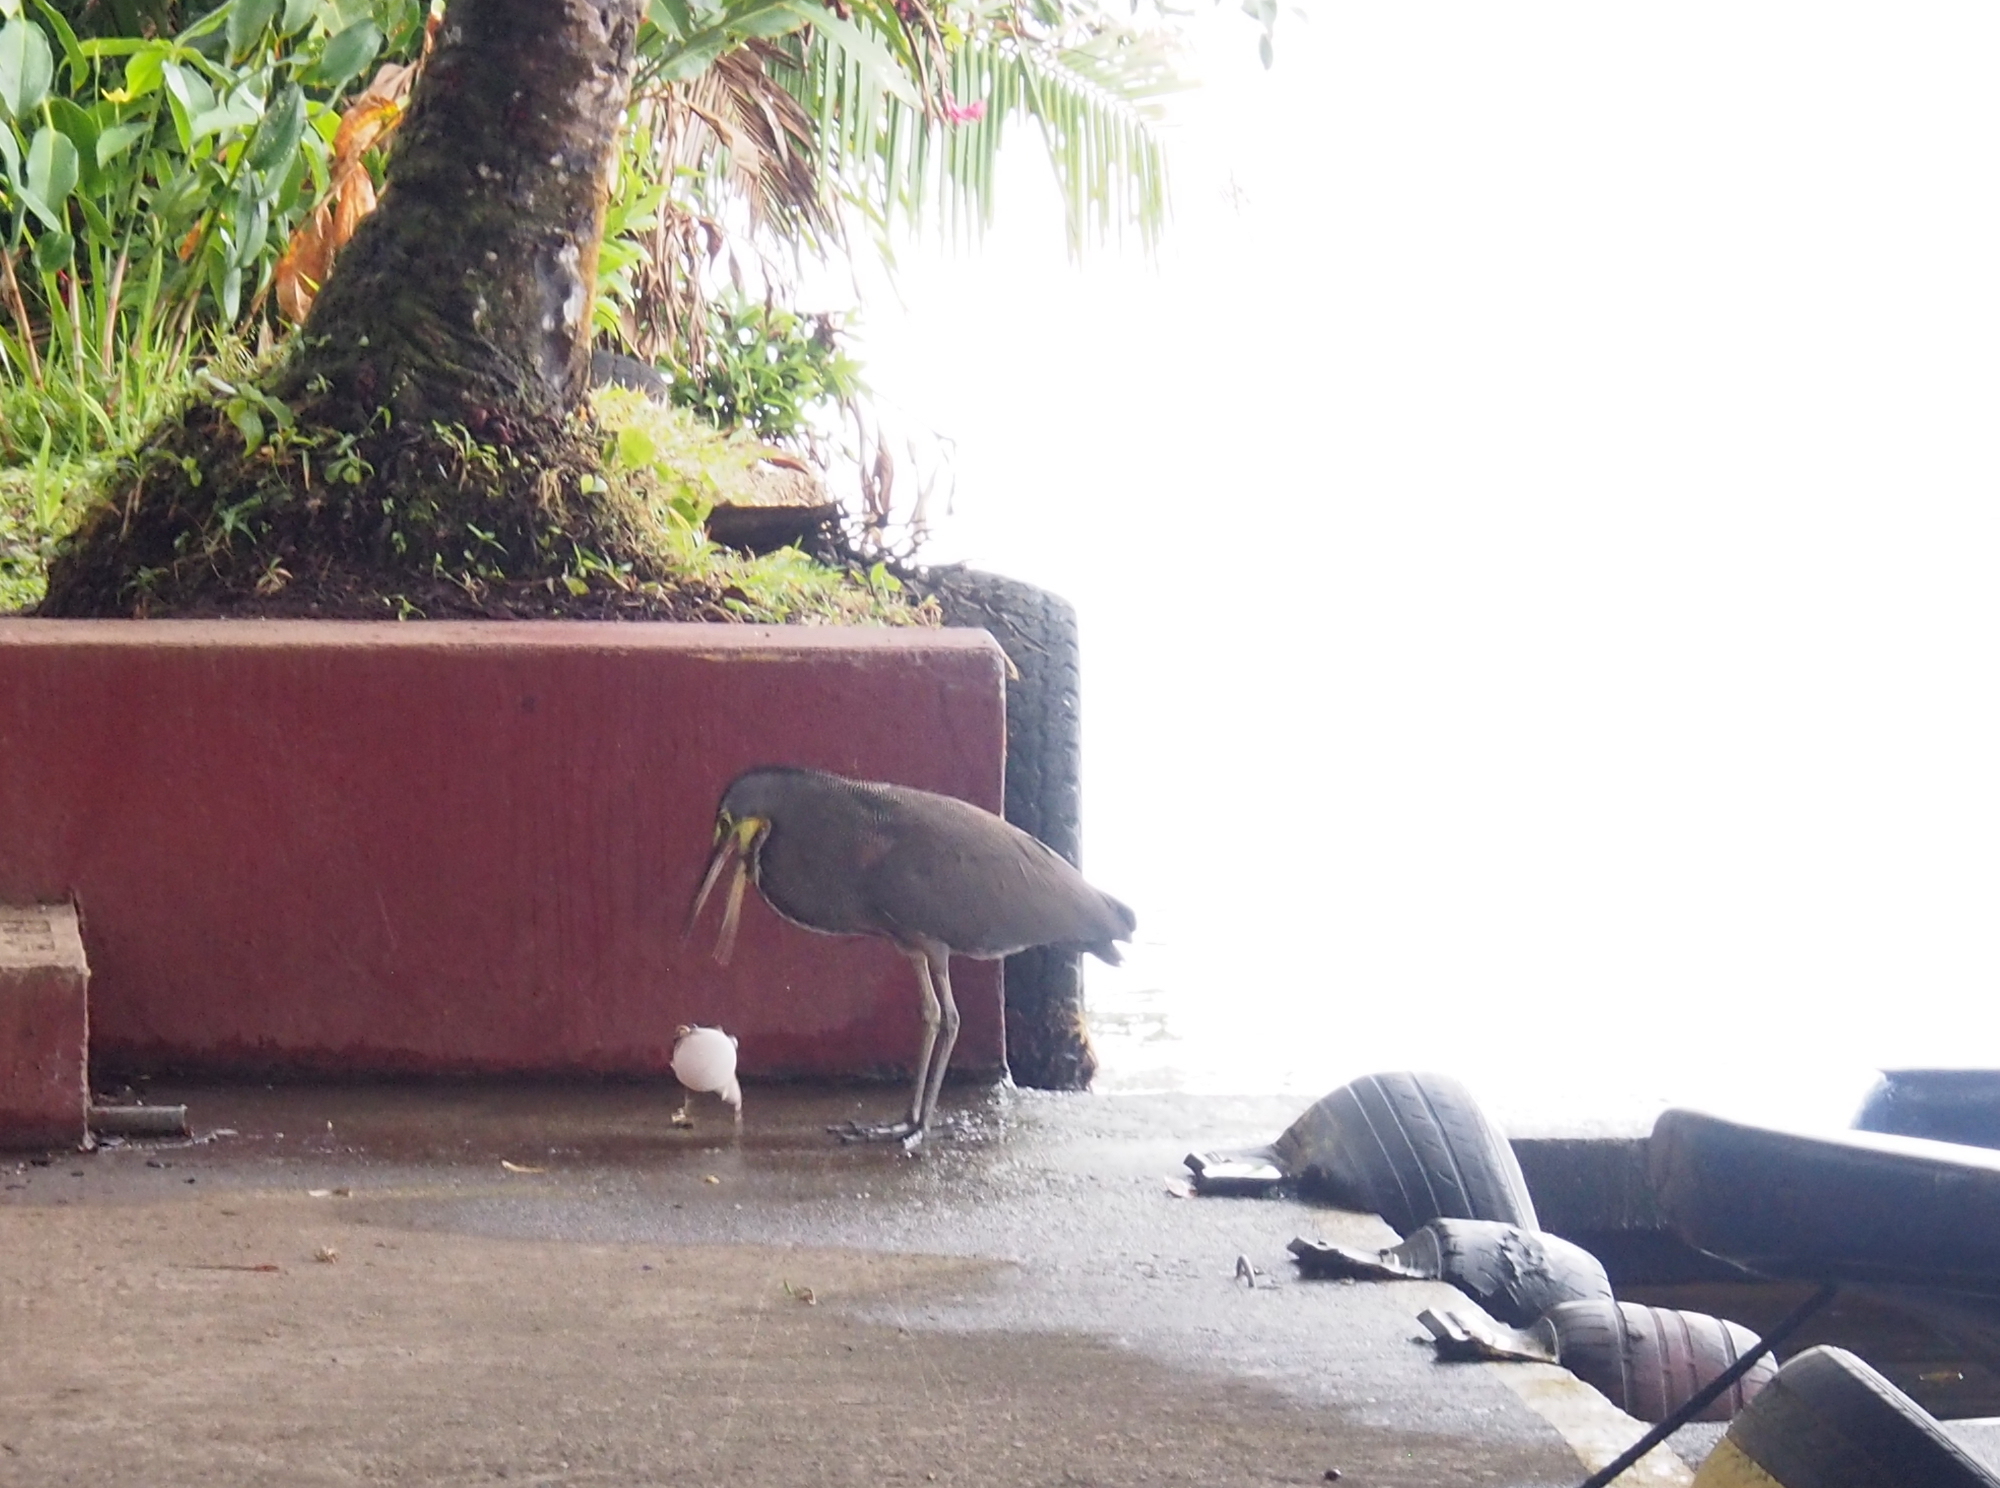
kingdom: Animalia
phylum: Chordata
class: Aves
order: Pelecaniformes
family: Ardeidae
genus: Tigrisoma
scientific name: Tigrisoma mexicanum
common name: Bare-throated tiger-heron
